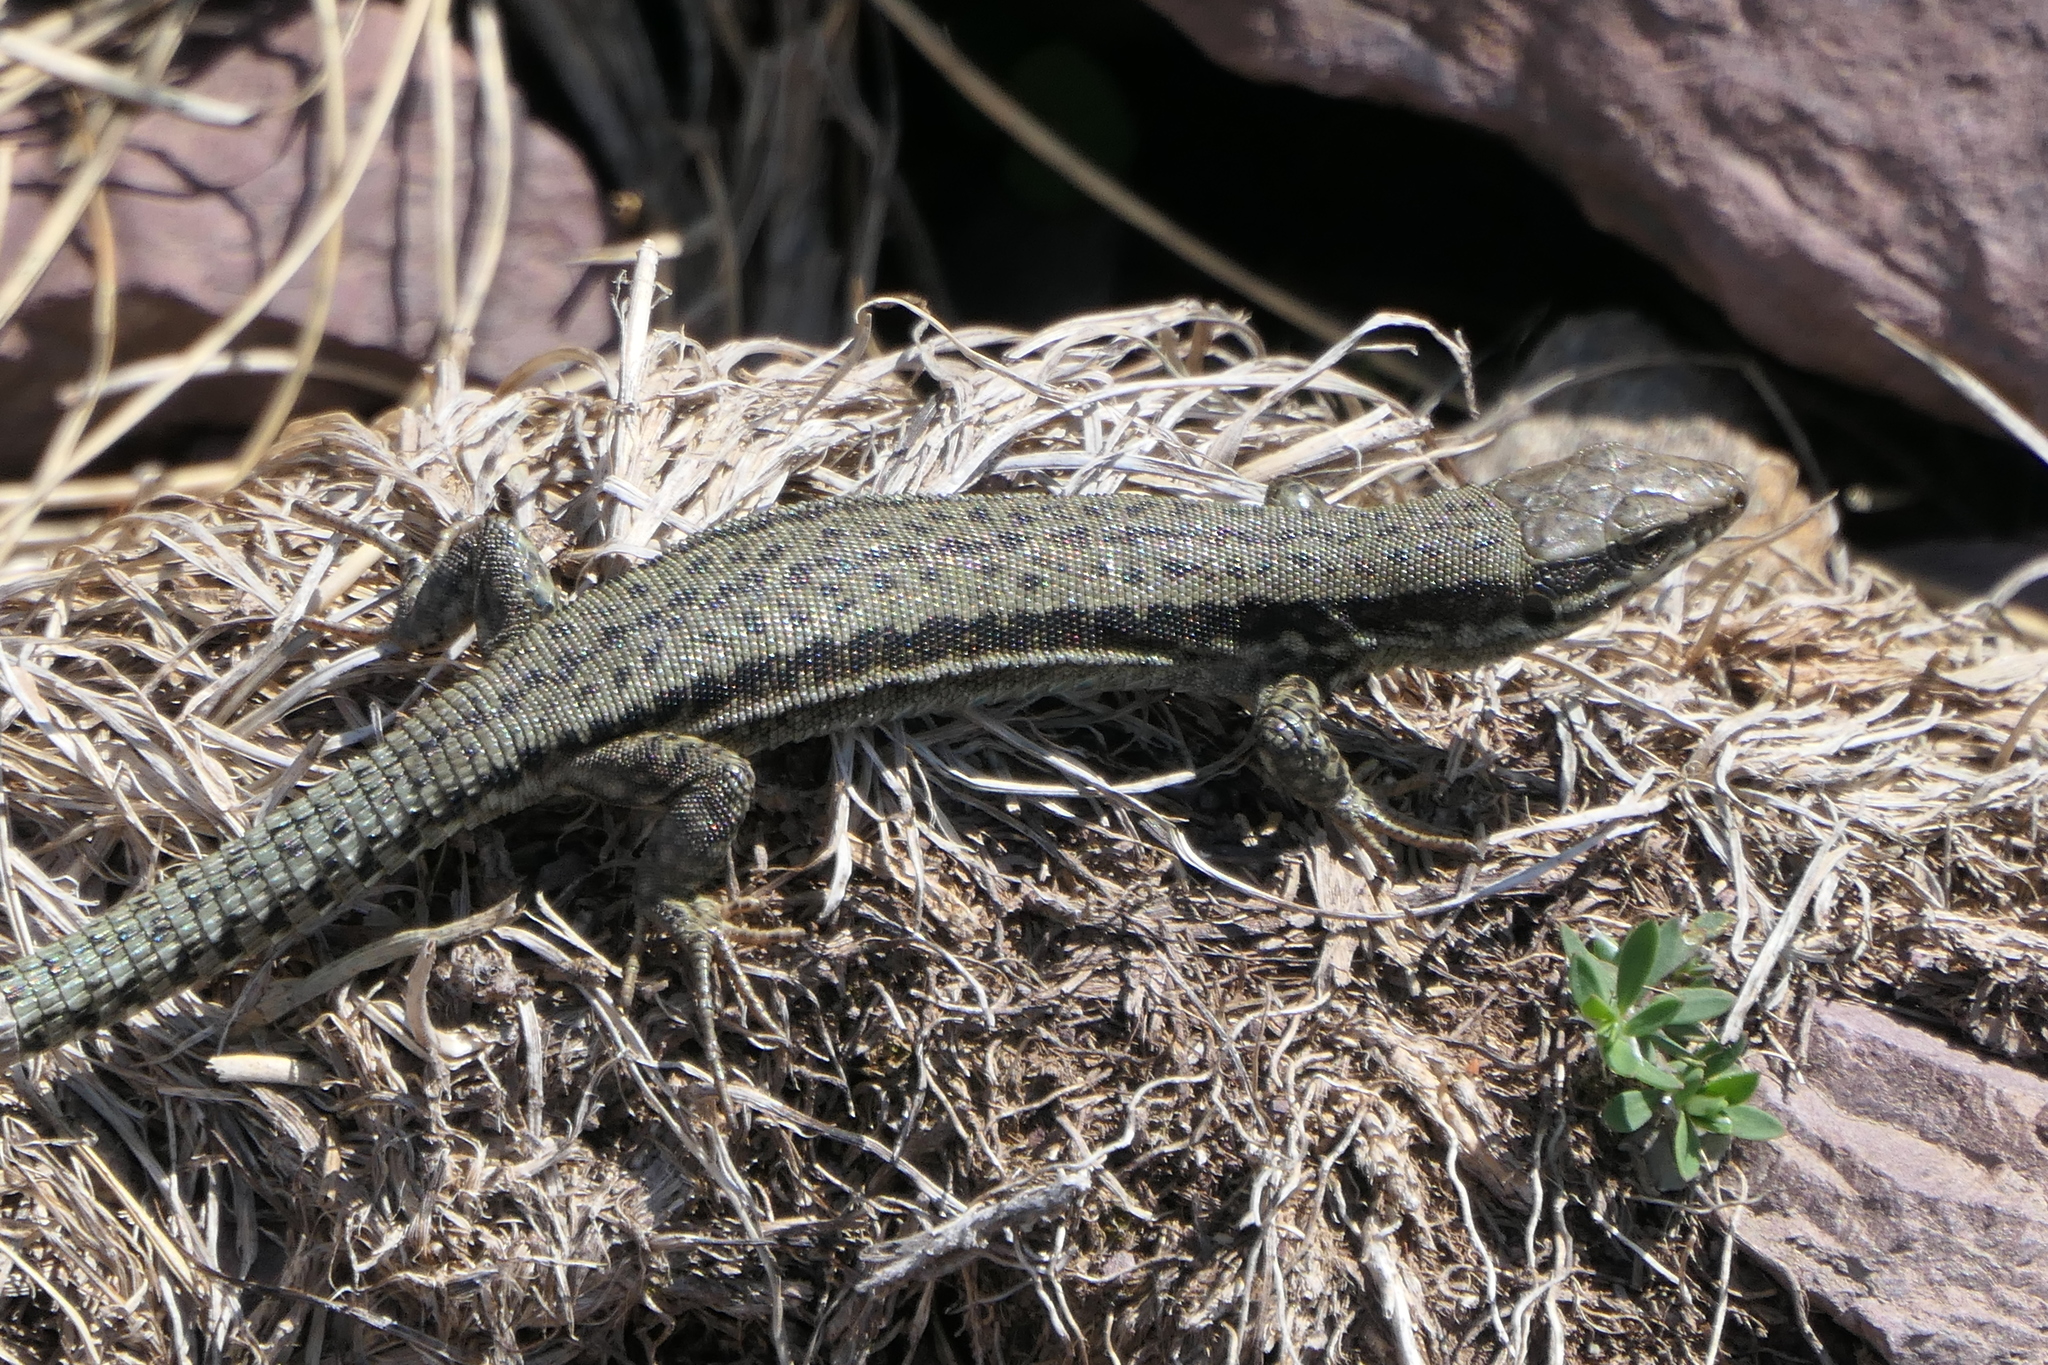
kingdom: Animalia
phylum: Chordata
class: Squamata
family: Lacertidae
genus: Podarcis
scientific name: Podarcis muralis
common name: Common wall lizard
